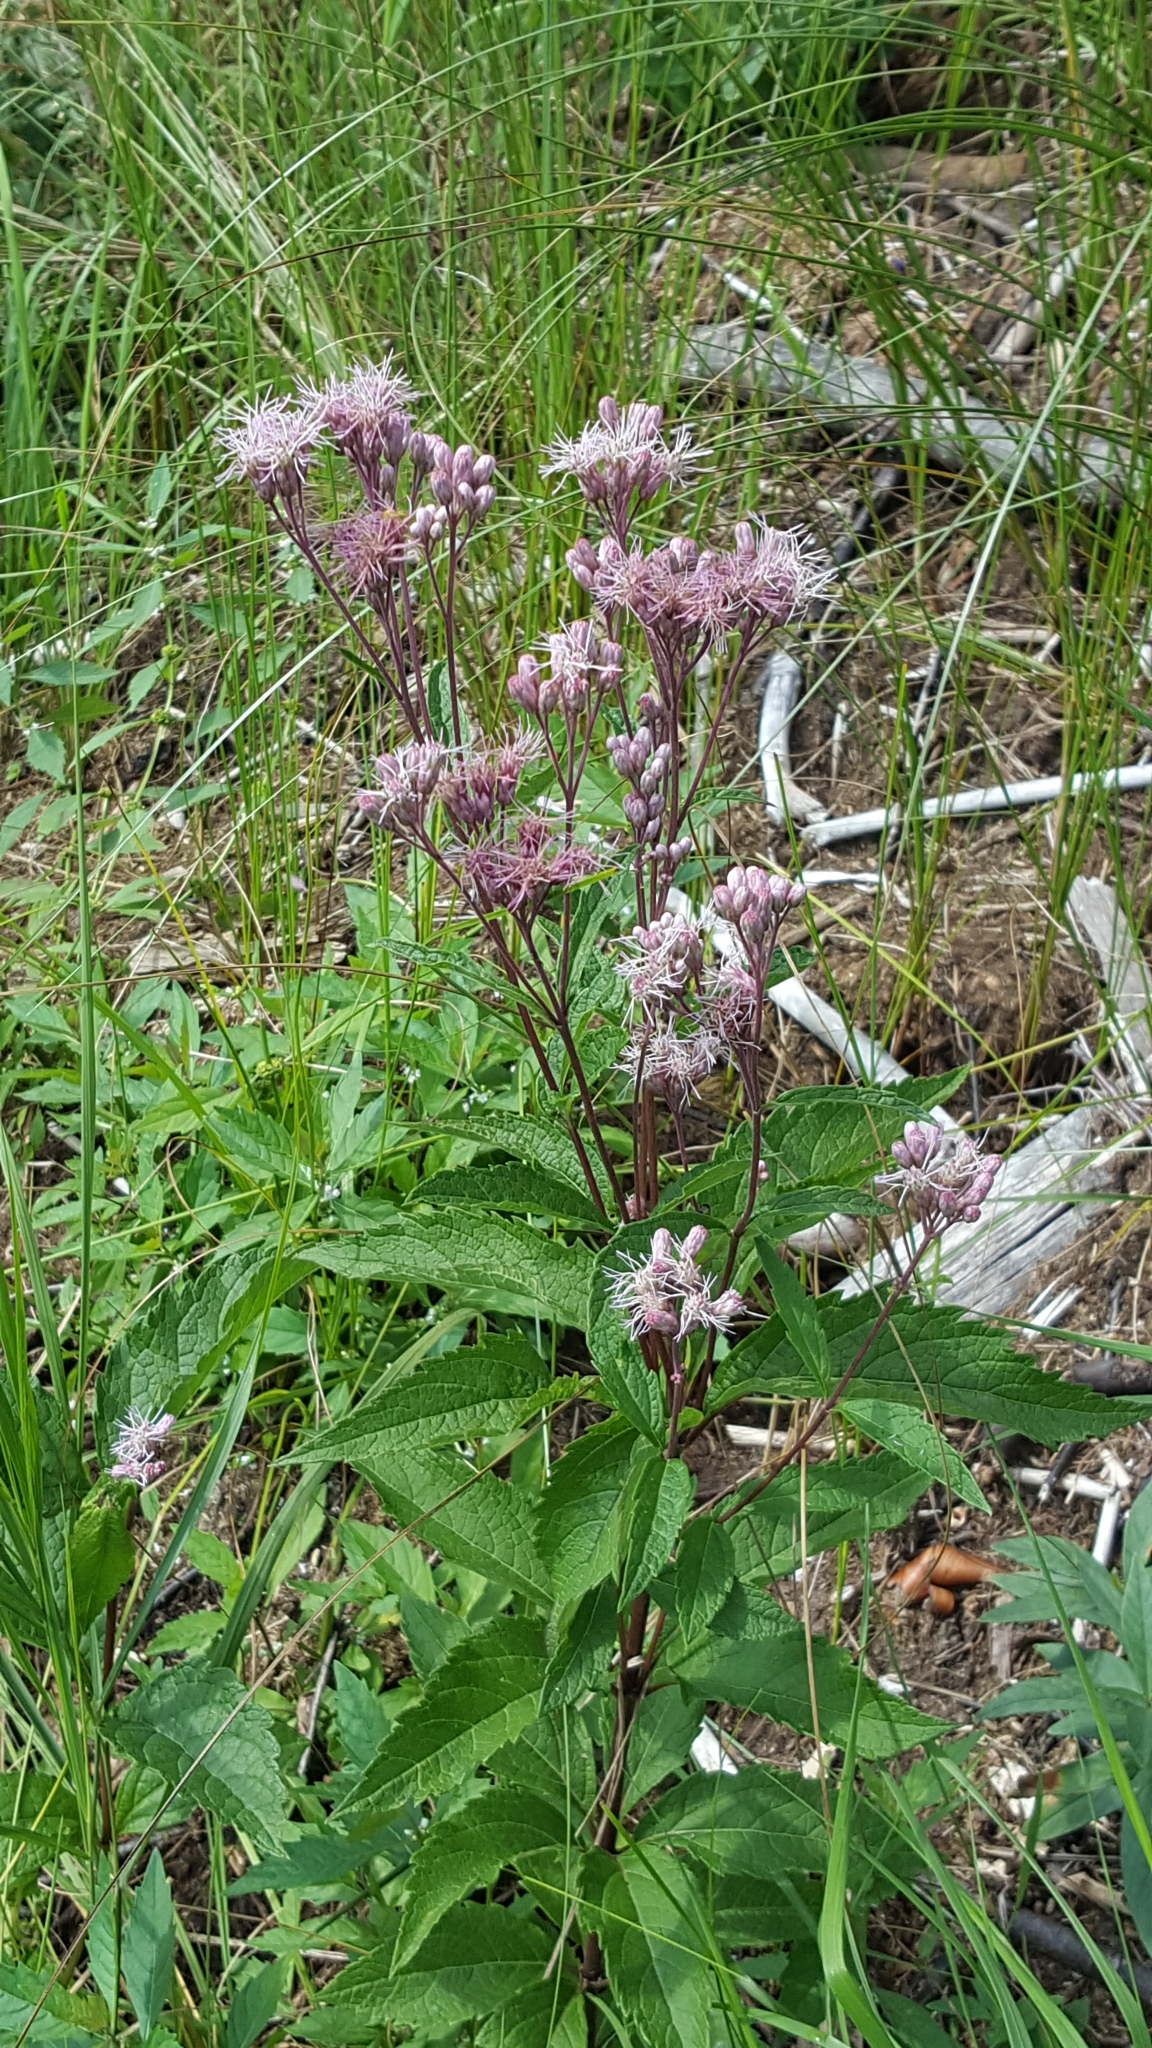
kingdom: Plantae
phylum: Tracheophyta
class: Magnoliopsida
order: Asterales
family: Asteraceae
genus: Eutrochium
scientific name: Eutrochium maculatum
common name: Spotted joe pye weed
